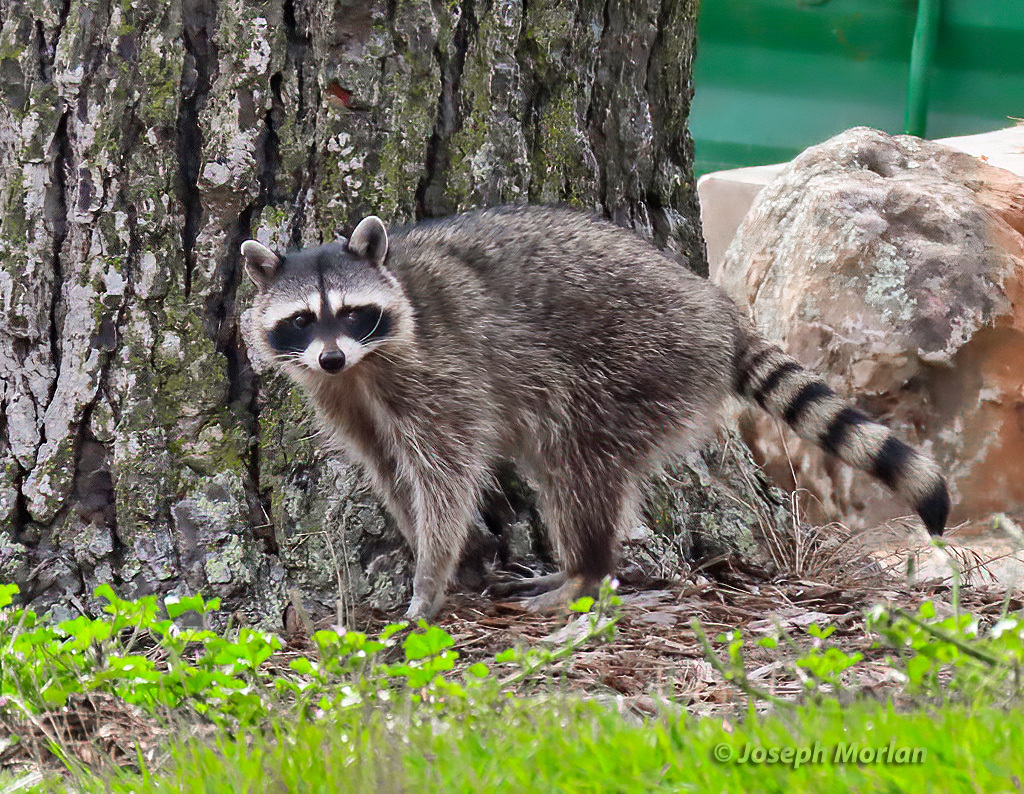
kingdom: Animalia
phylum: Chordata
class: Mammalia
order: Carnivora
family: Procyonidae
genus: Procyon
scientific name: Procyon lotor
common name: Raccoon
